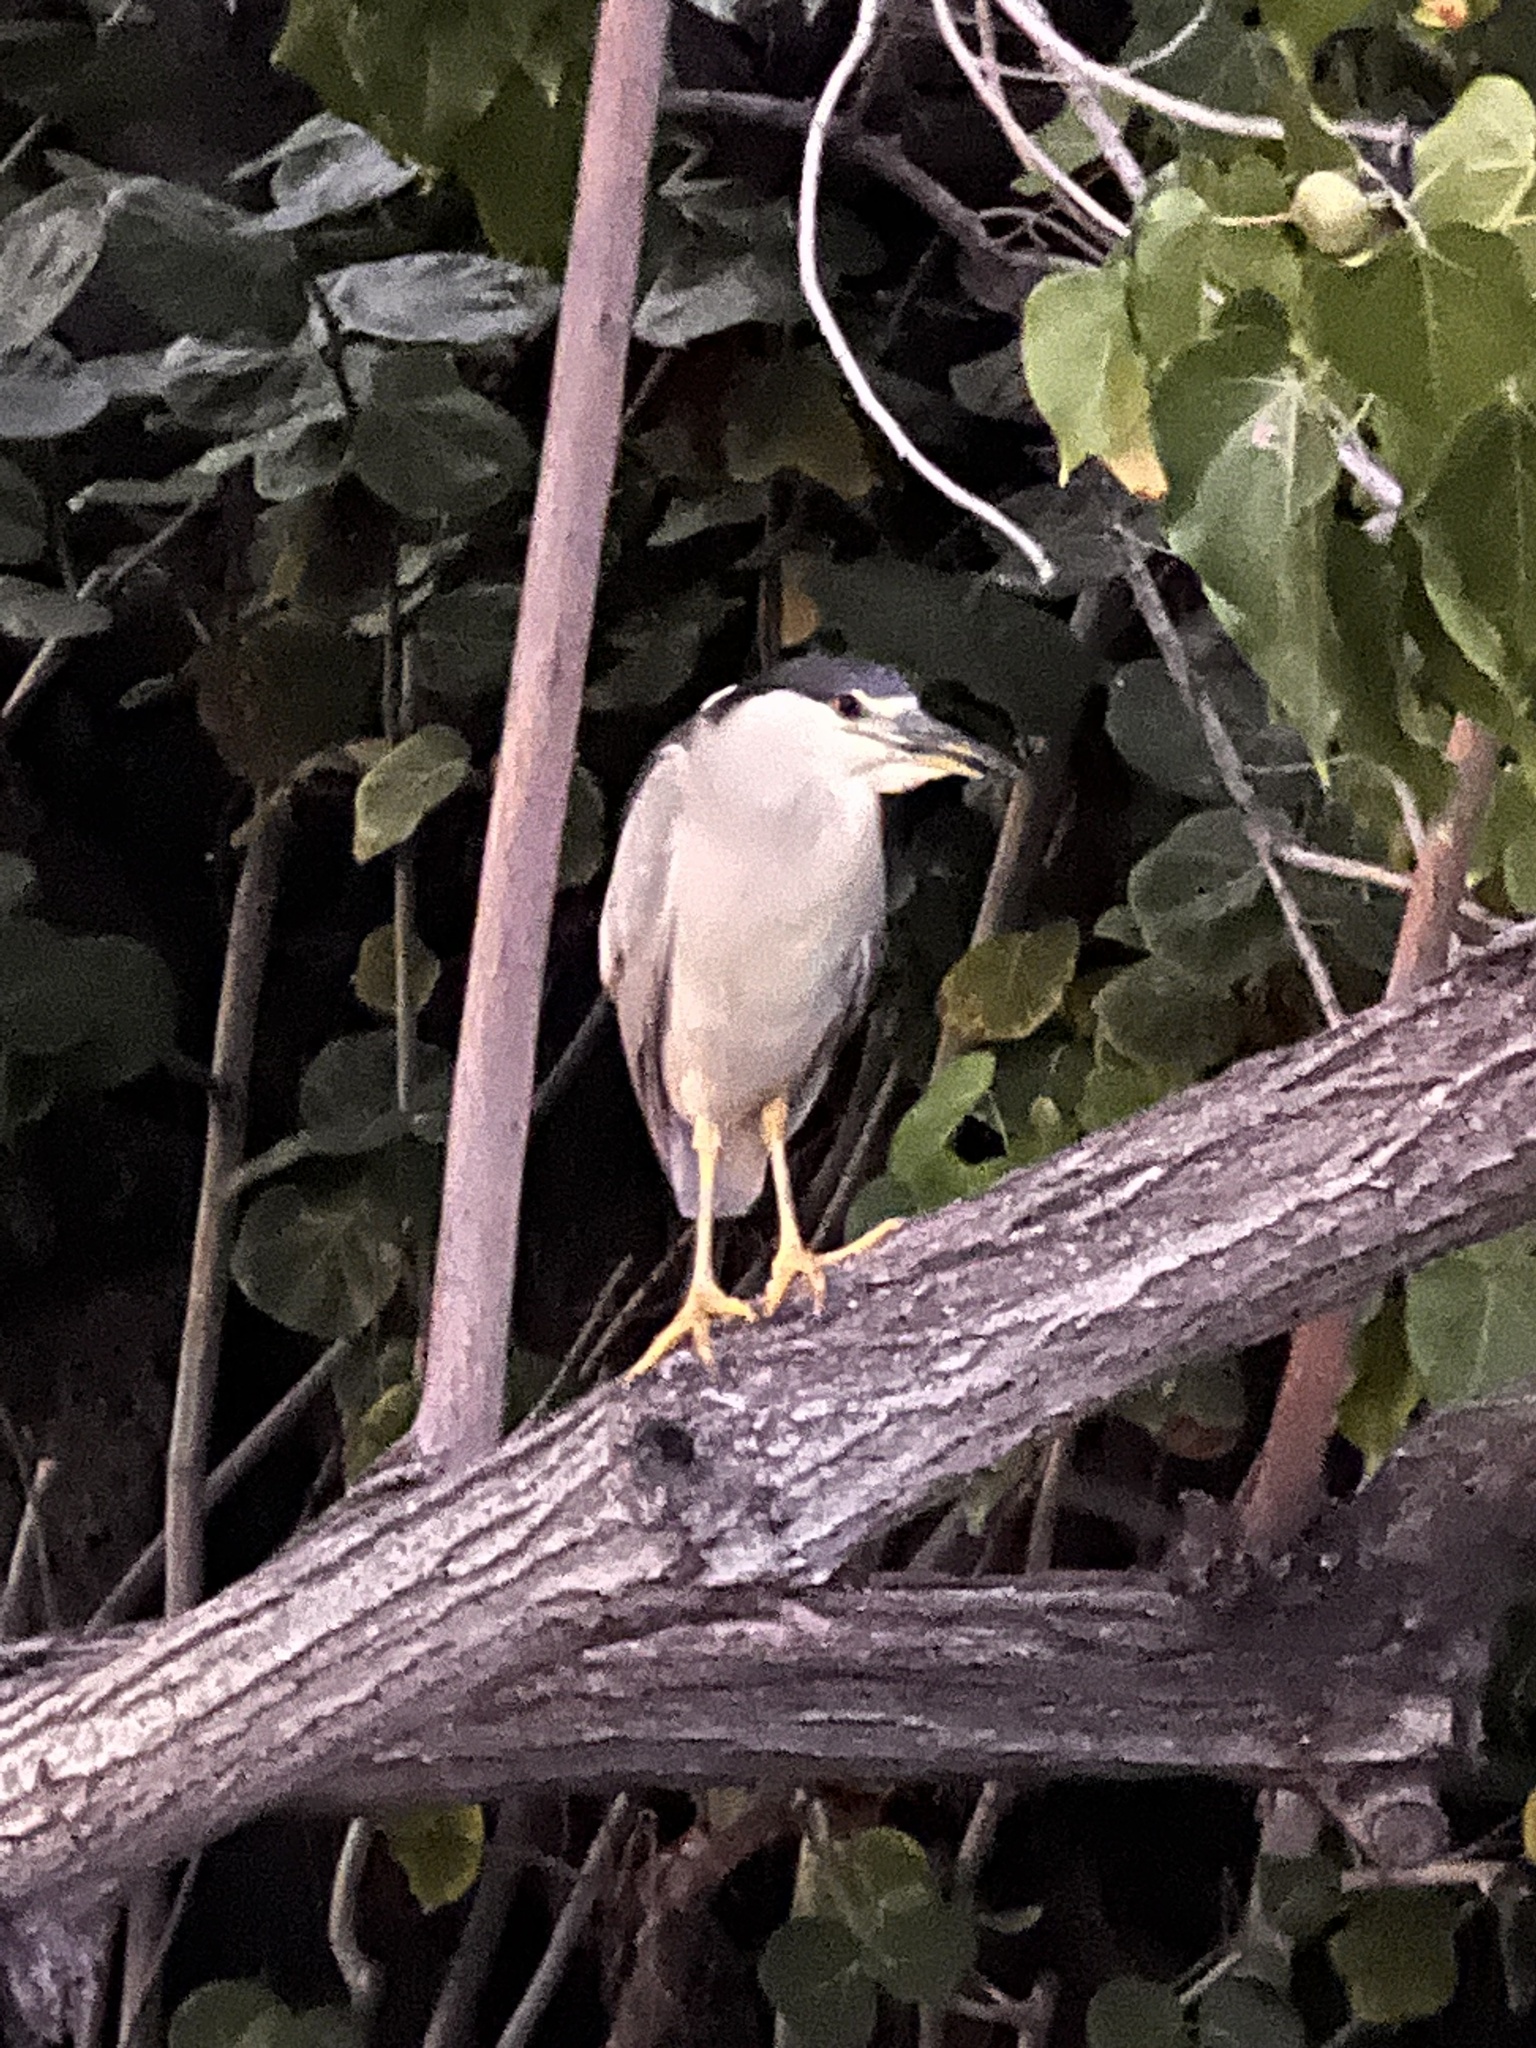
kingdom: Animalia
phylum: Chordata
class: Aves
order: Pelecaniformes
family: Ardeidae
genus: Nycticorax
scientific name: Nycticorax nycticorax
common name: Black-crowned night heron
